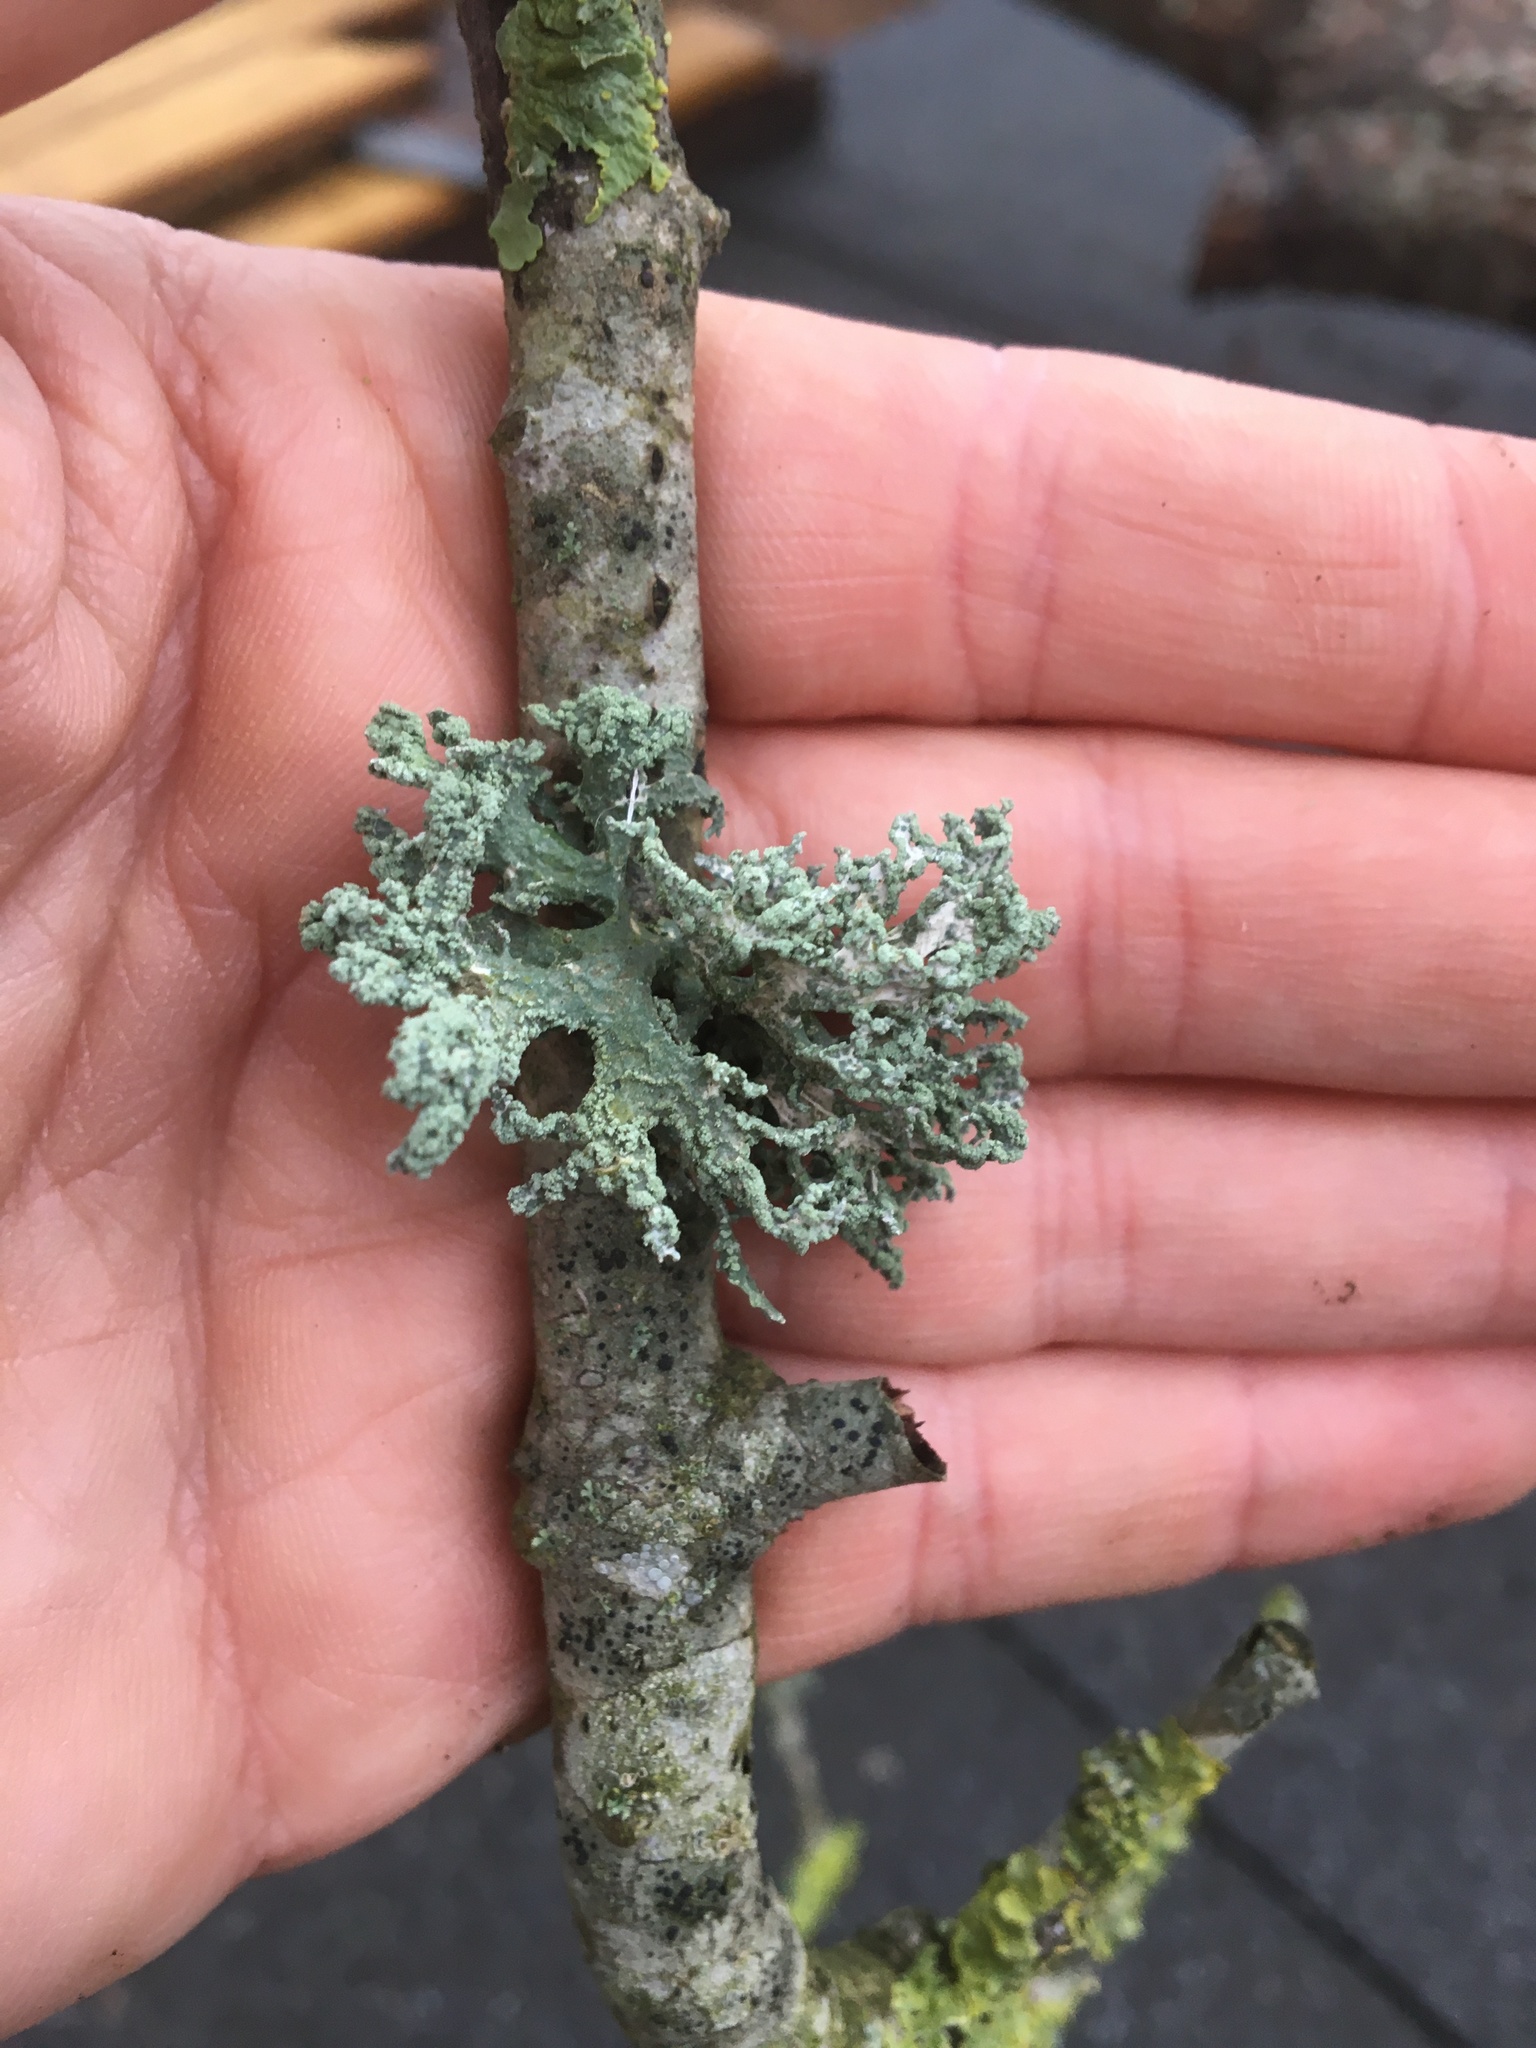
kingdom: Fungi
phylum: Ascomycota
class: Lecanoromycetes
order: Lecanorales
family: Parmeliaceae
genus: Evernia
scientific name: Evernia prunastri
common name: Oak moss
